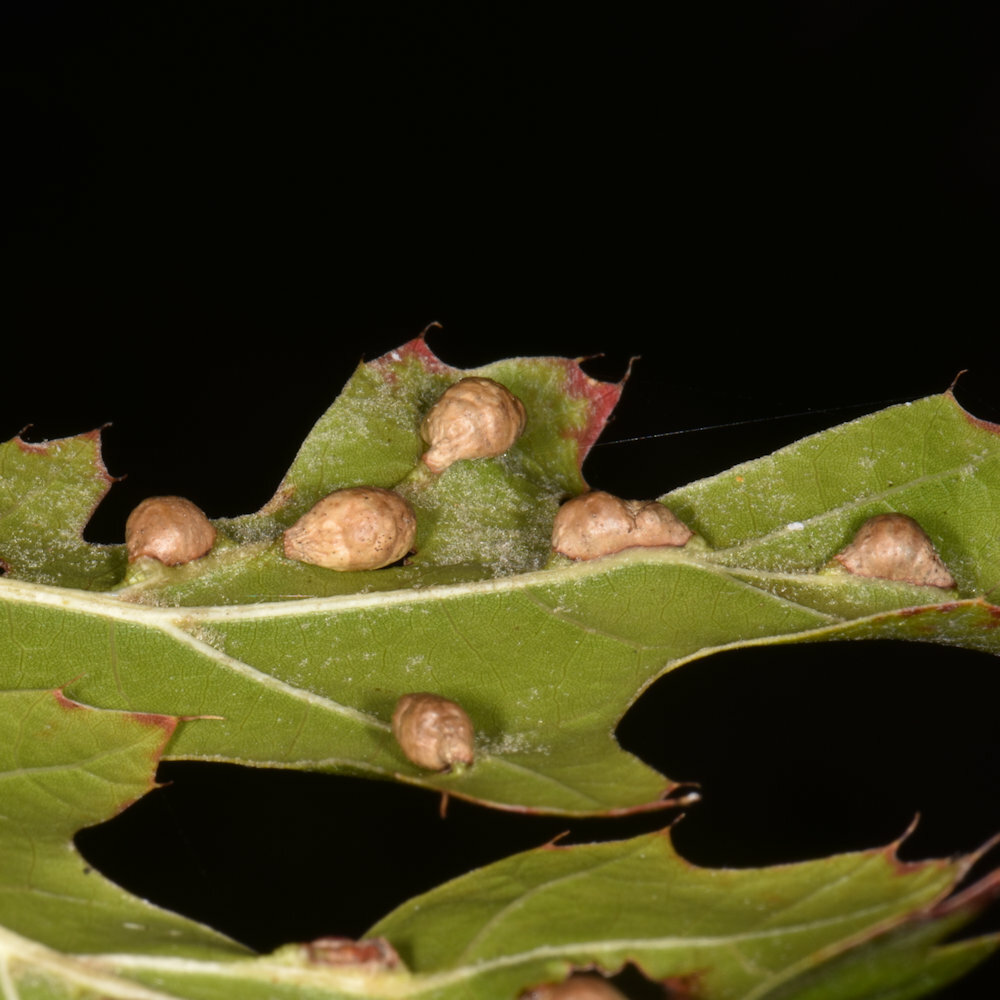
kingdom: Animalia
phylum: Arthropoda
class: Insecta
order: Diptera
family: Cecidomyiidae
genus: Macrodiplosis
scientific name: Macrodiplosis majalis
